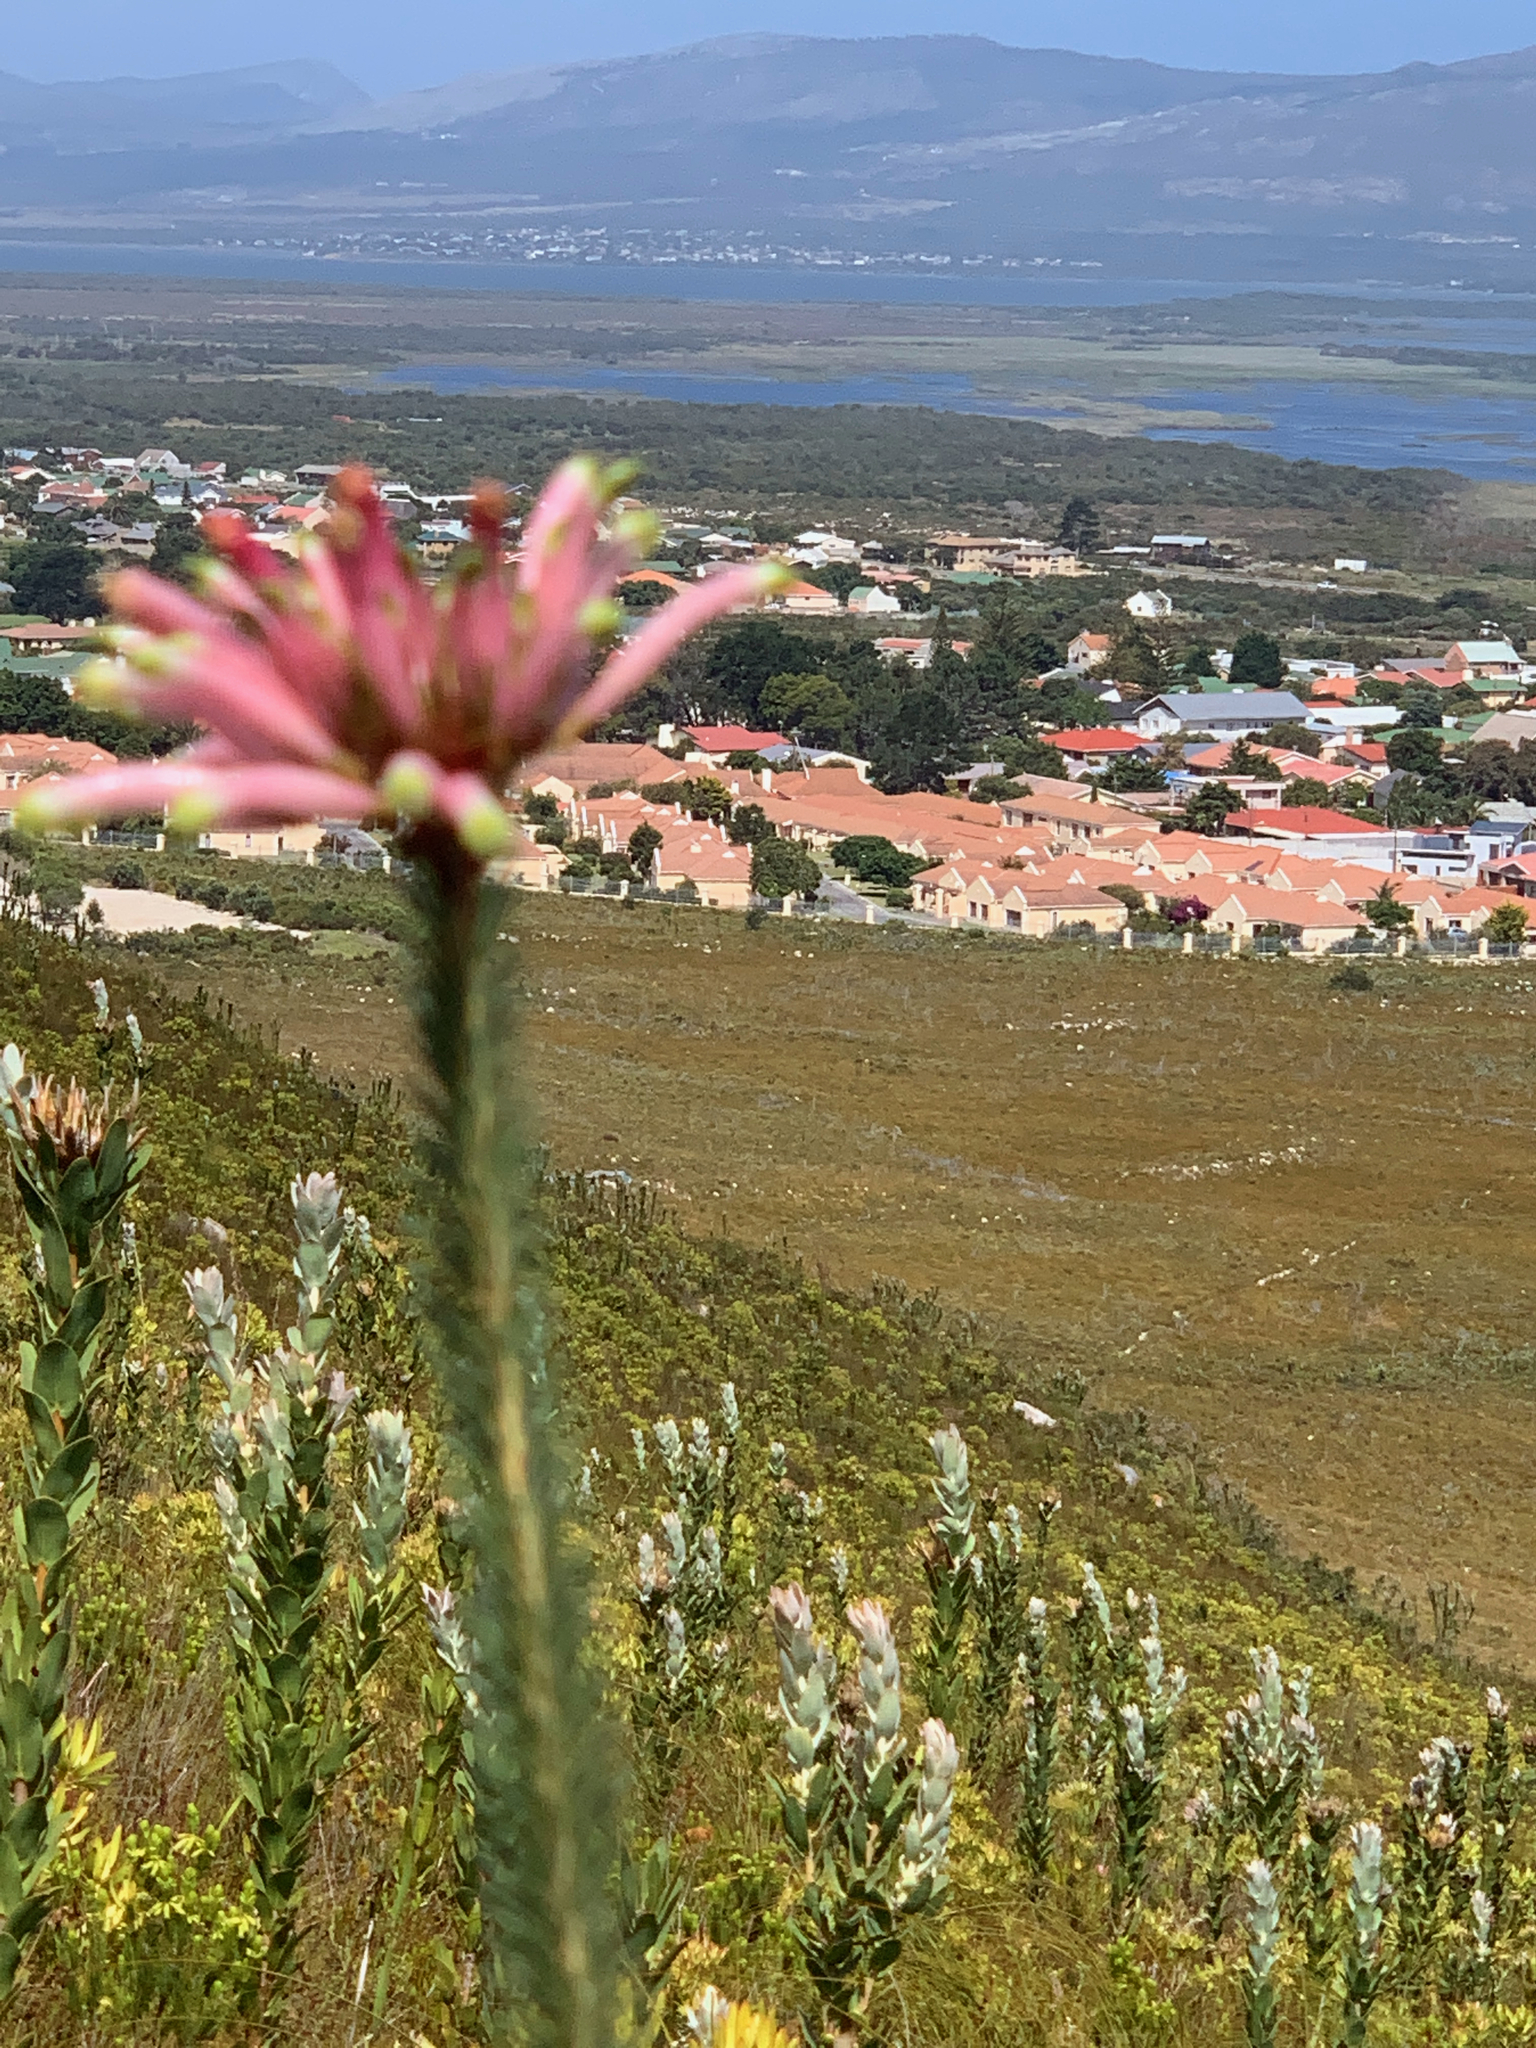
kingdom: Plantae
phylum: Tracheophyta
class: Magnoliopsida
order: Ericales
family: Ericaceae
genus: Erica
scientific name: Erica fascicularis
